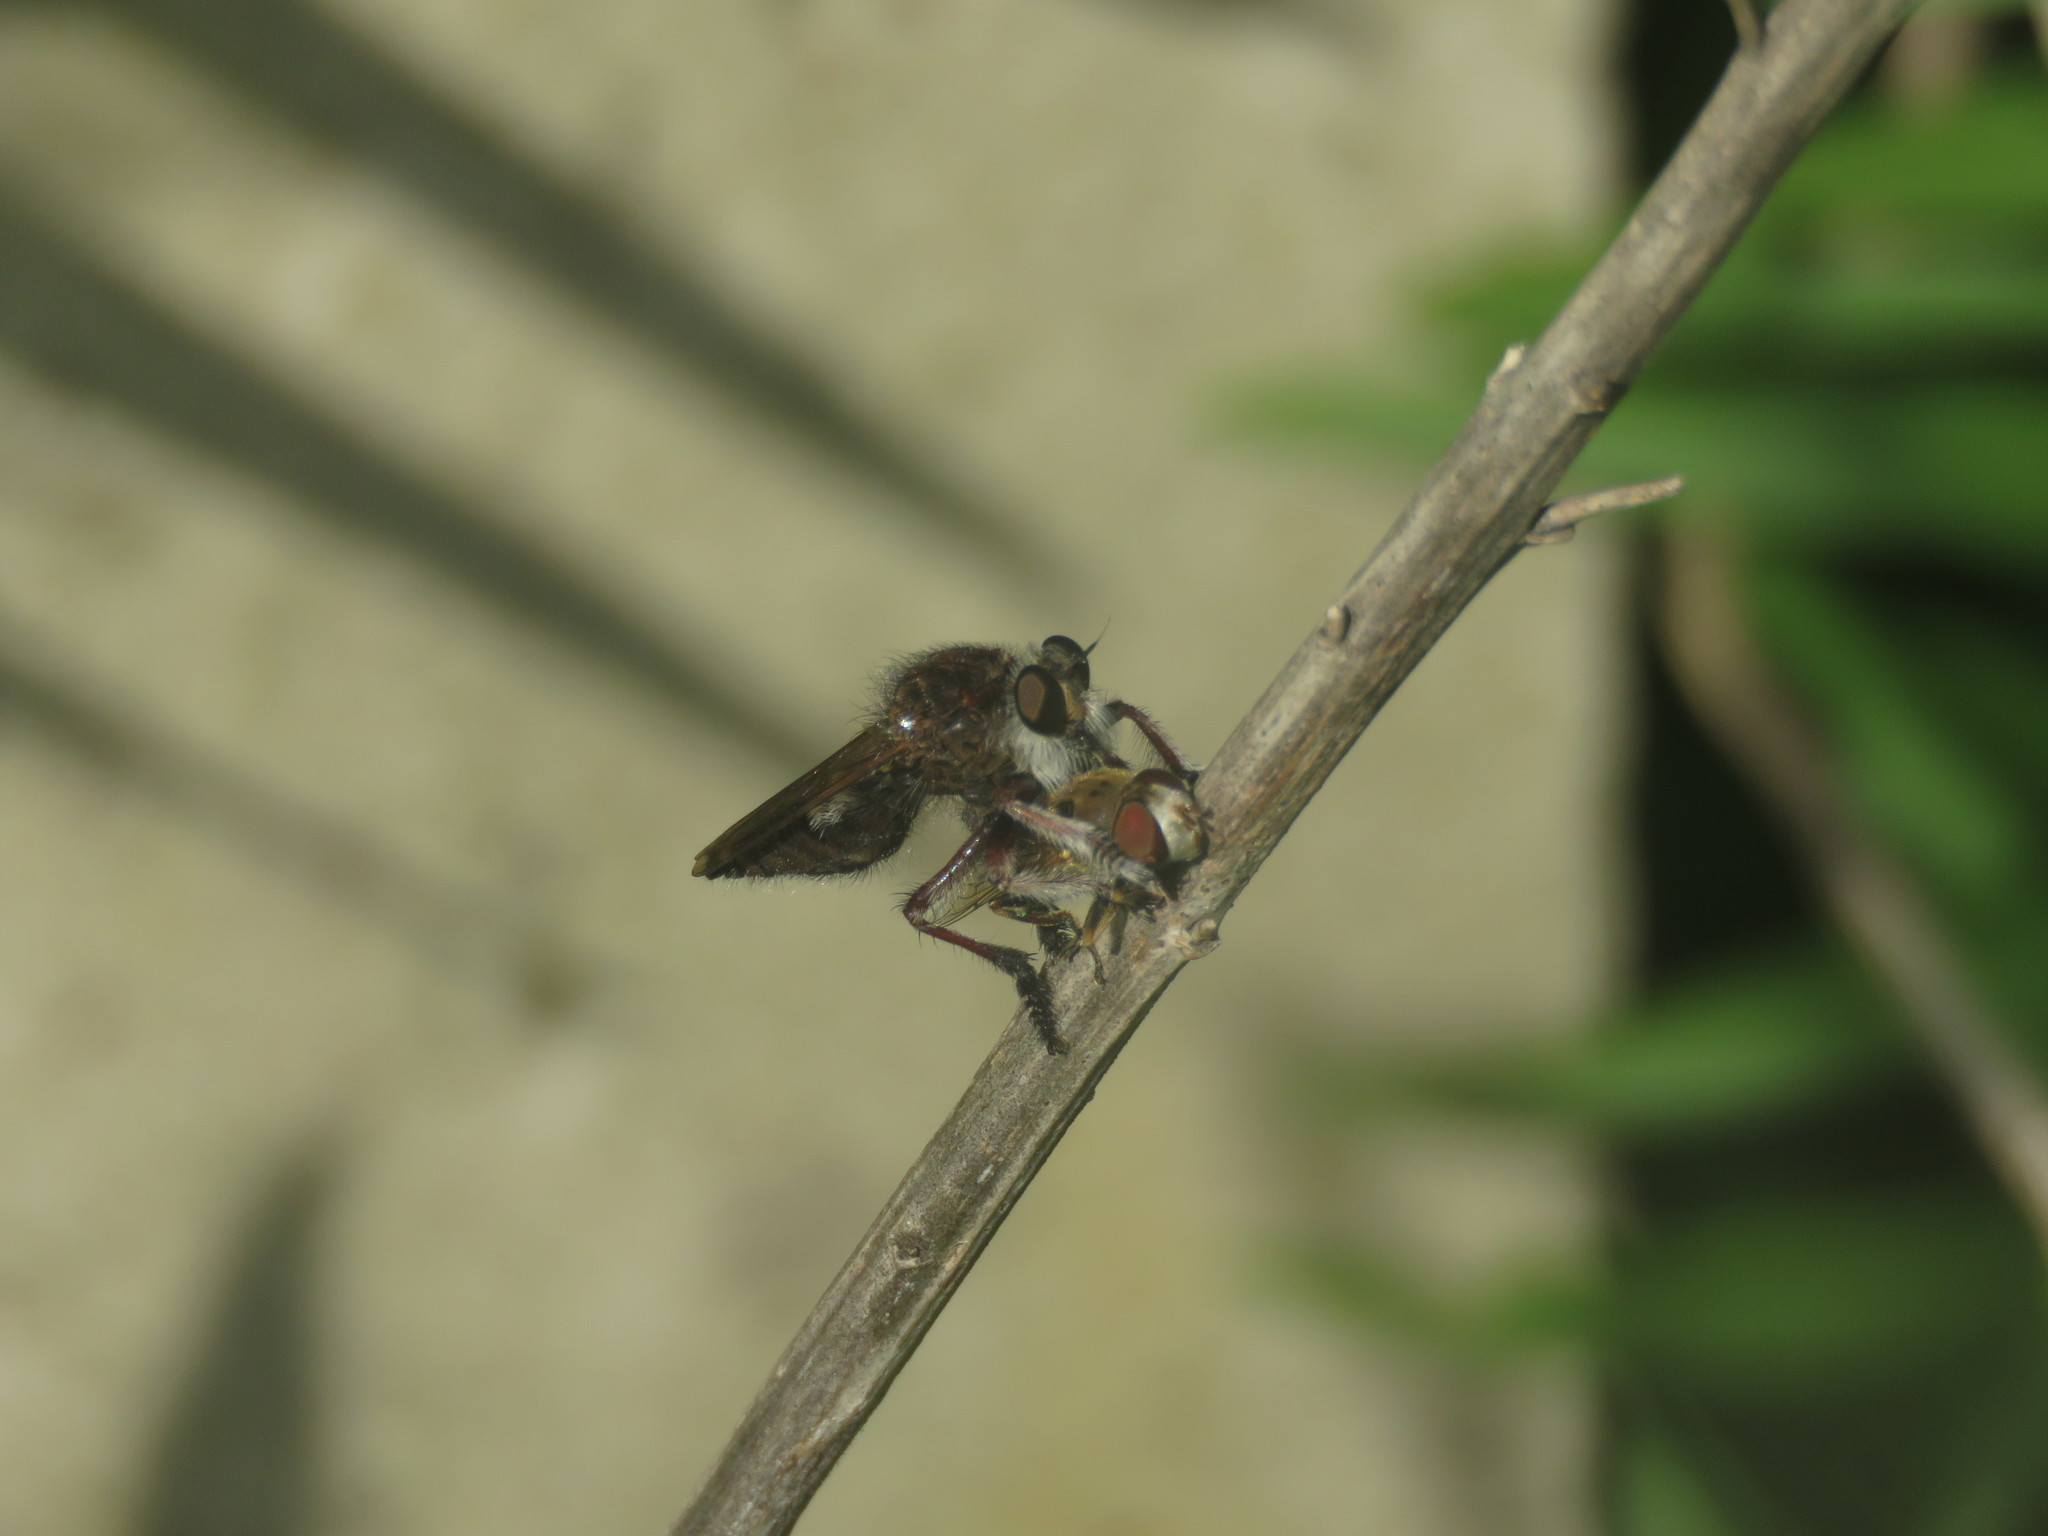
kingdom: Animalia
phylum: Arthropoda
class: Insecta
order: Diptera
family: Asilidae
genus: Mallophora
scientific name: Mallophora bigotii
